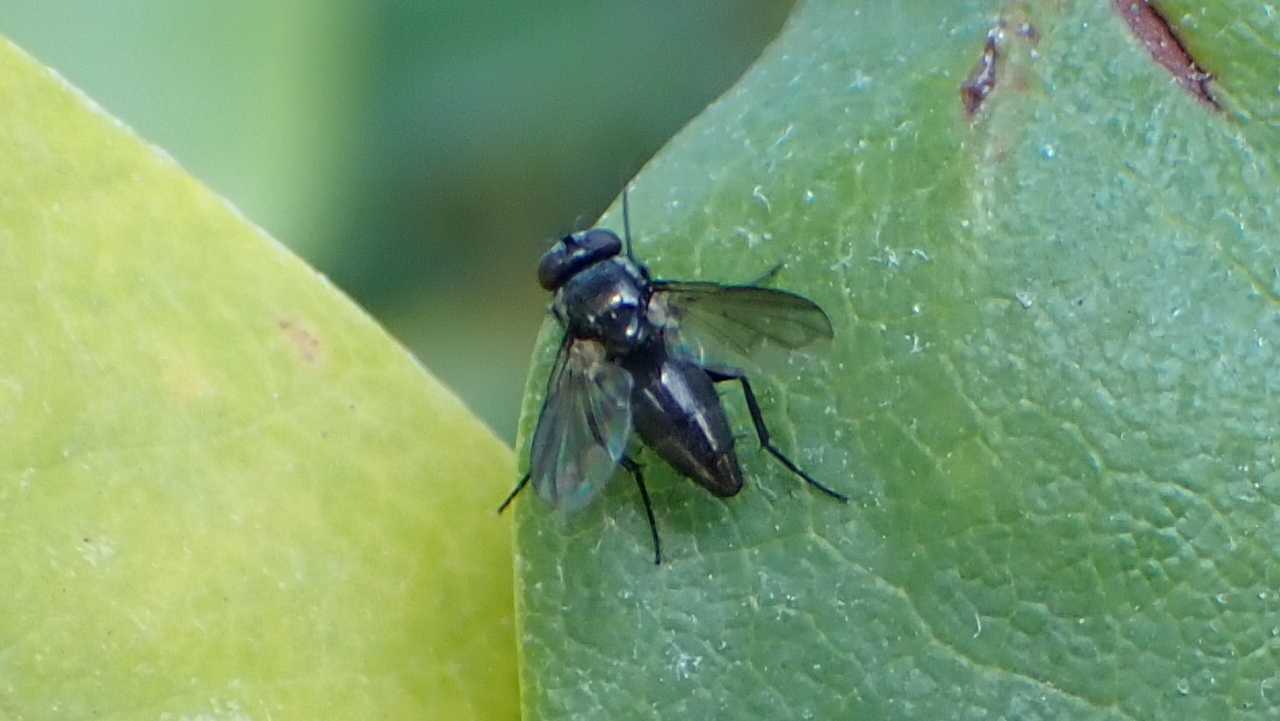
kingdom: Animalia
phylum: Arthropoda
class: Insecta
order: Diptera
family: Calliphoridae
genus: Rhinophora
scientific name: Rhinophora lepida
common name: Pouting woodlouse-fly
